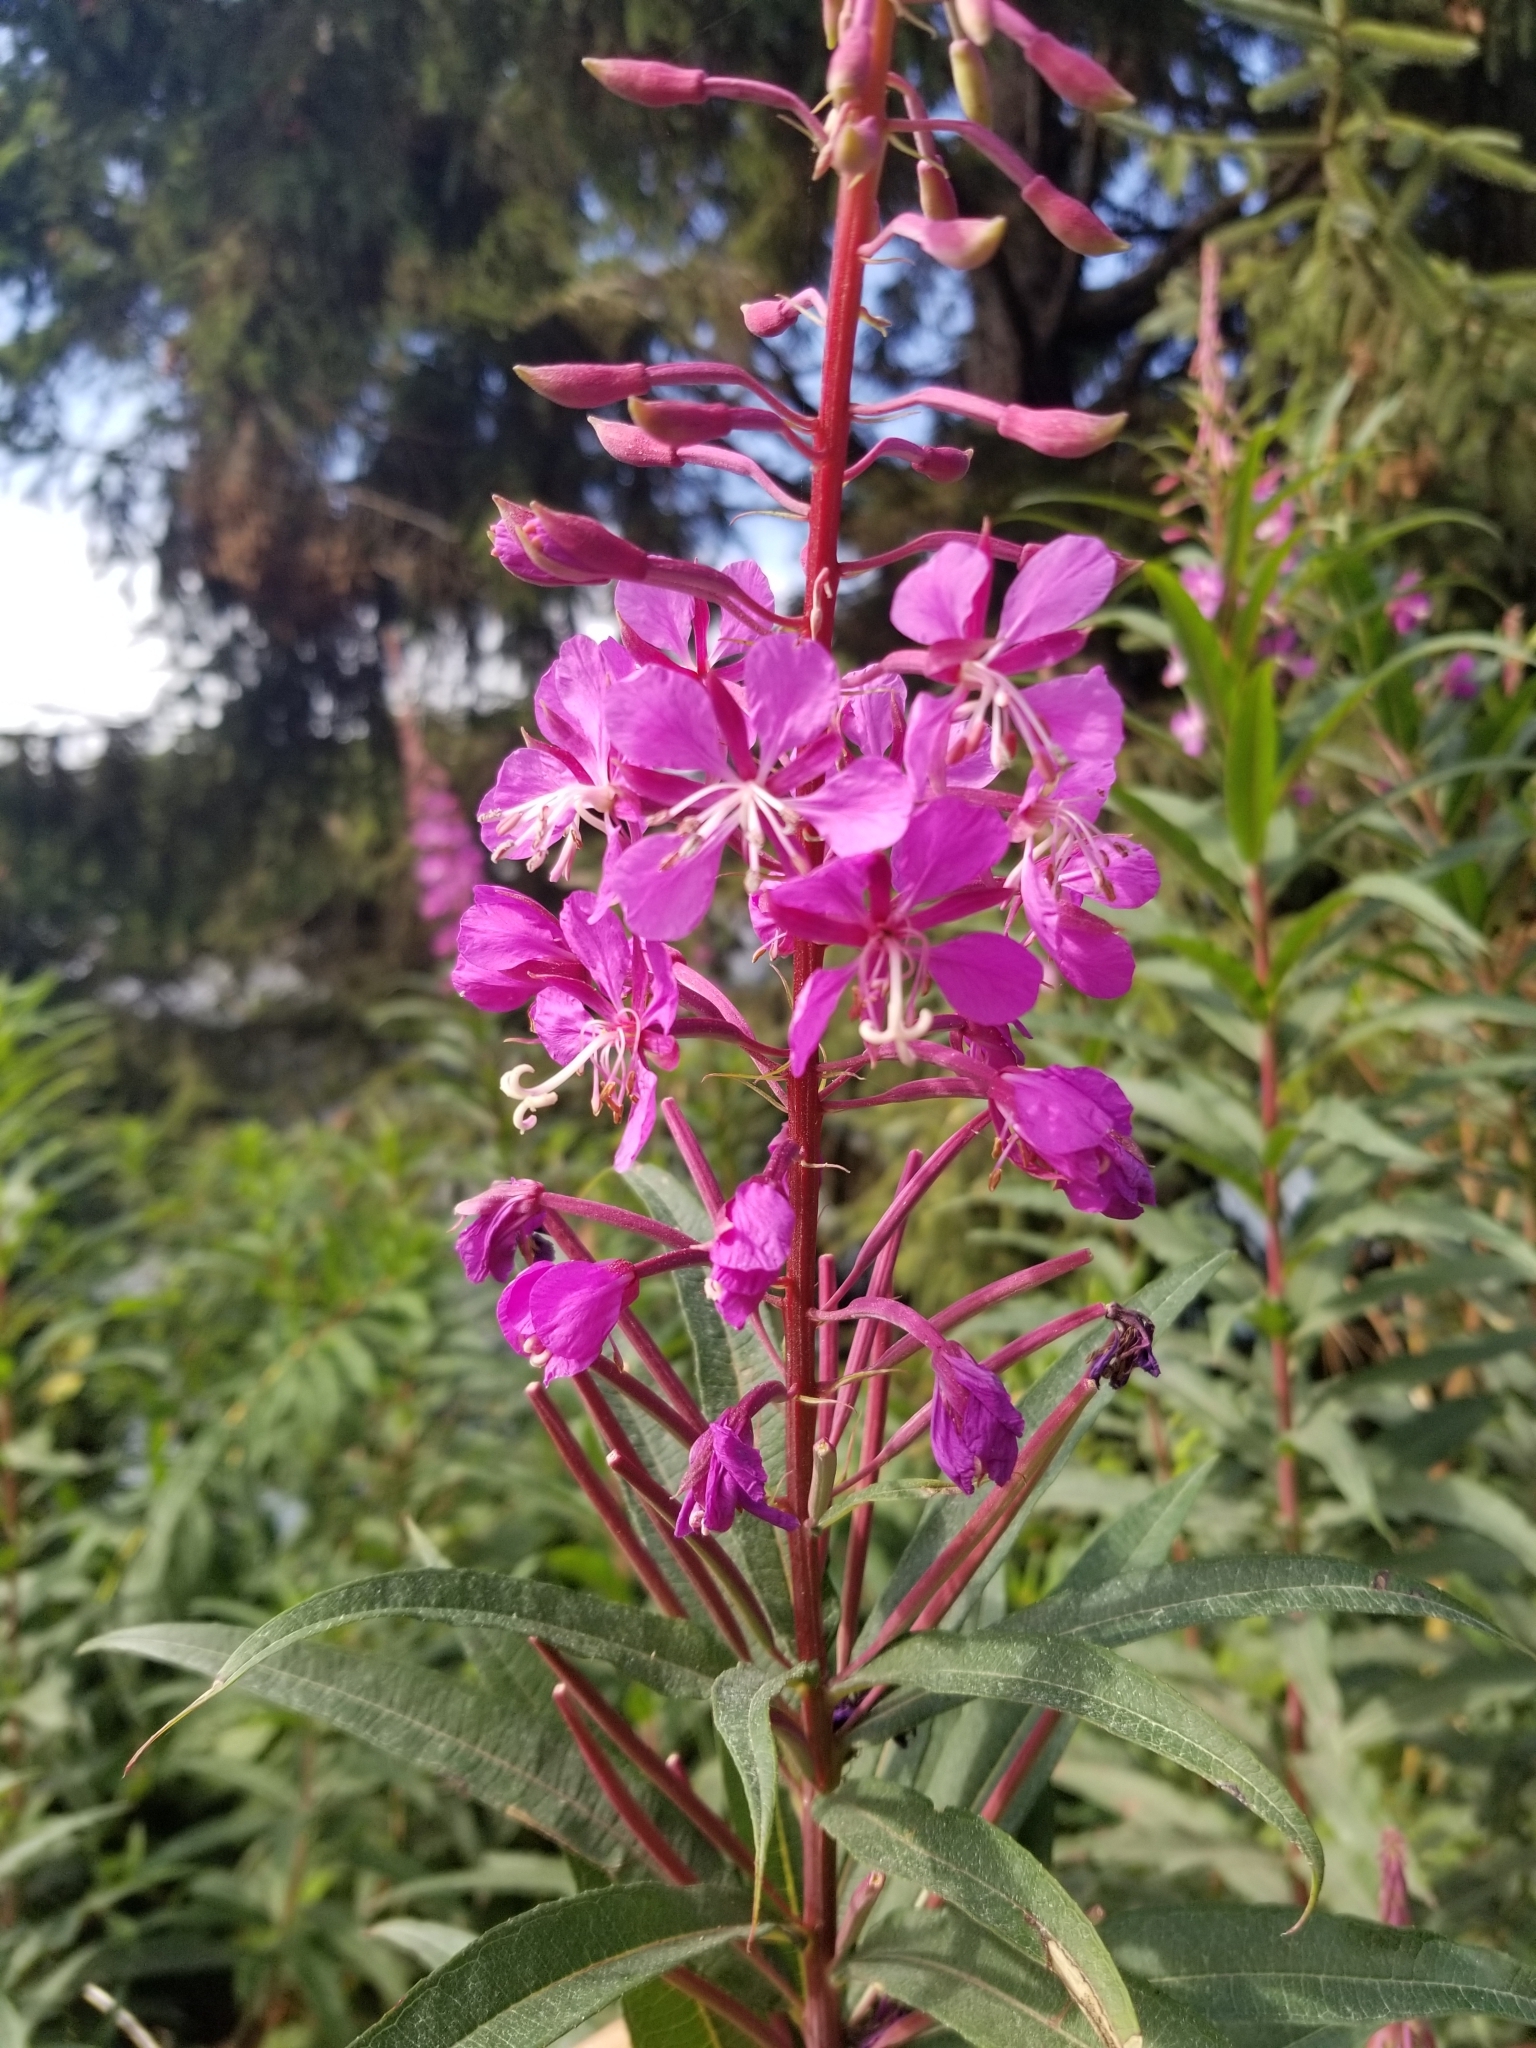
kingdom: Plantae
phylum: Tracheophyta
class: Magnoliopsida
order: Myrtales
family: Onagraceae
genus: Chamaenerion
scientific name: Chamaenerion angustifolium
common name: Fireweed
